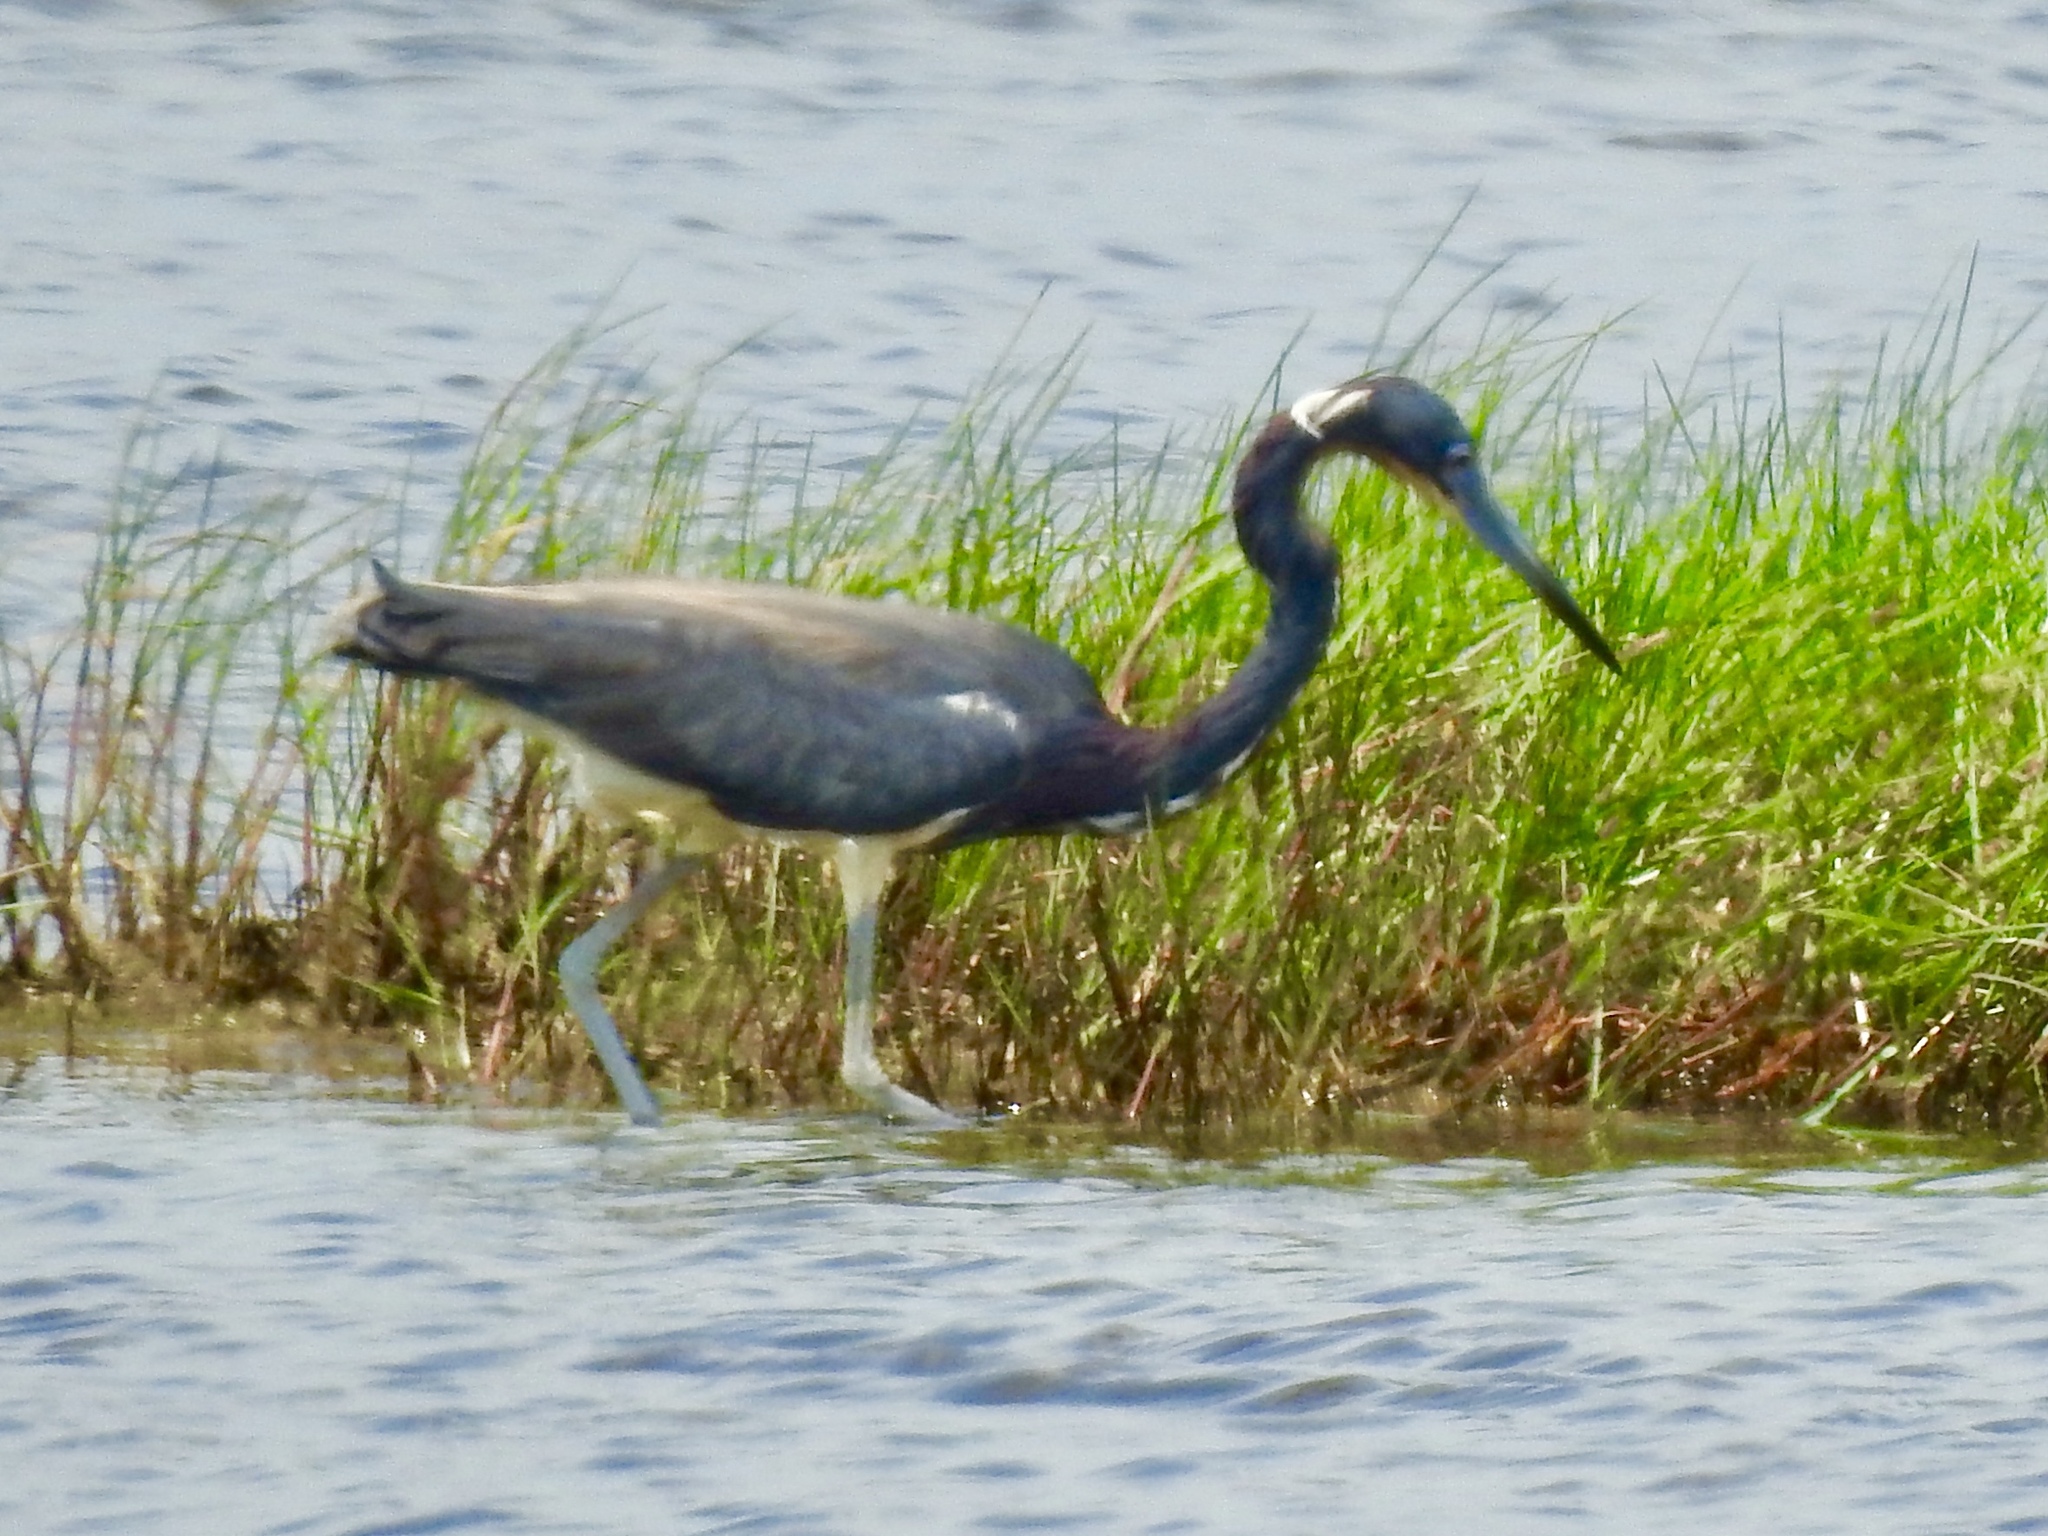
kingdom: Animalia
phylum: Chordata
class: Aves
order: Pelecaniformes
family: Ardeidae
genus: Egretta
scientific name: Egretta tricolor
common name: Tricolored heron
